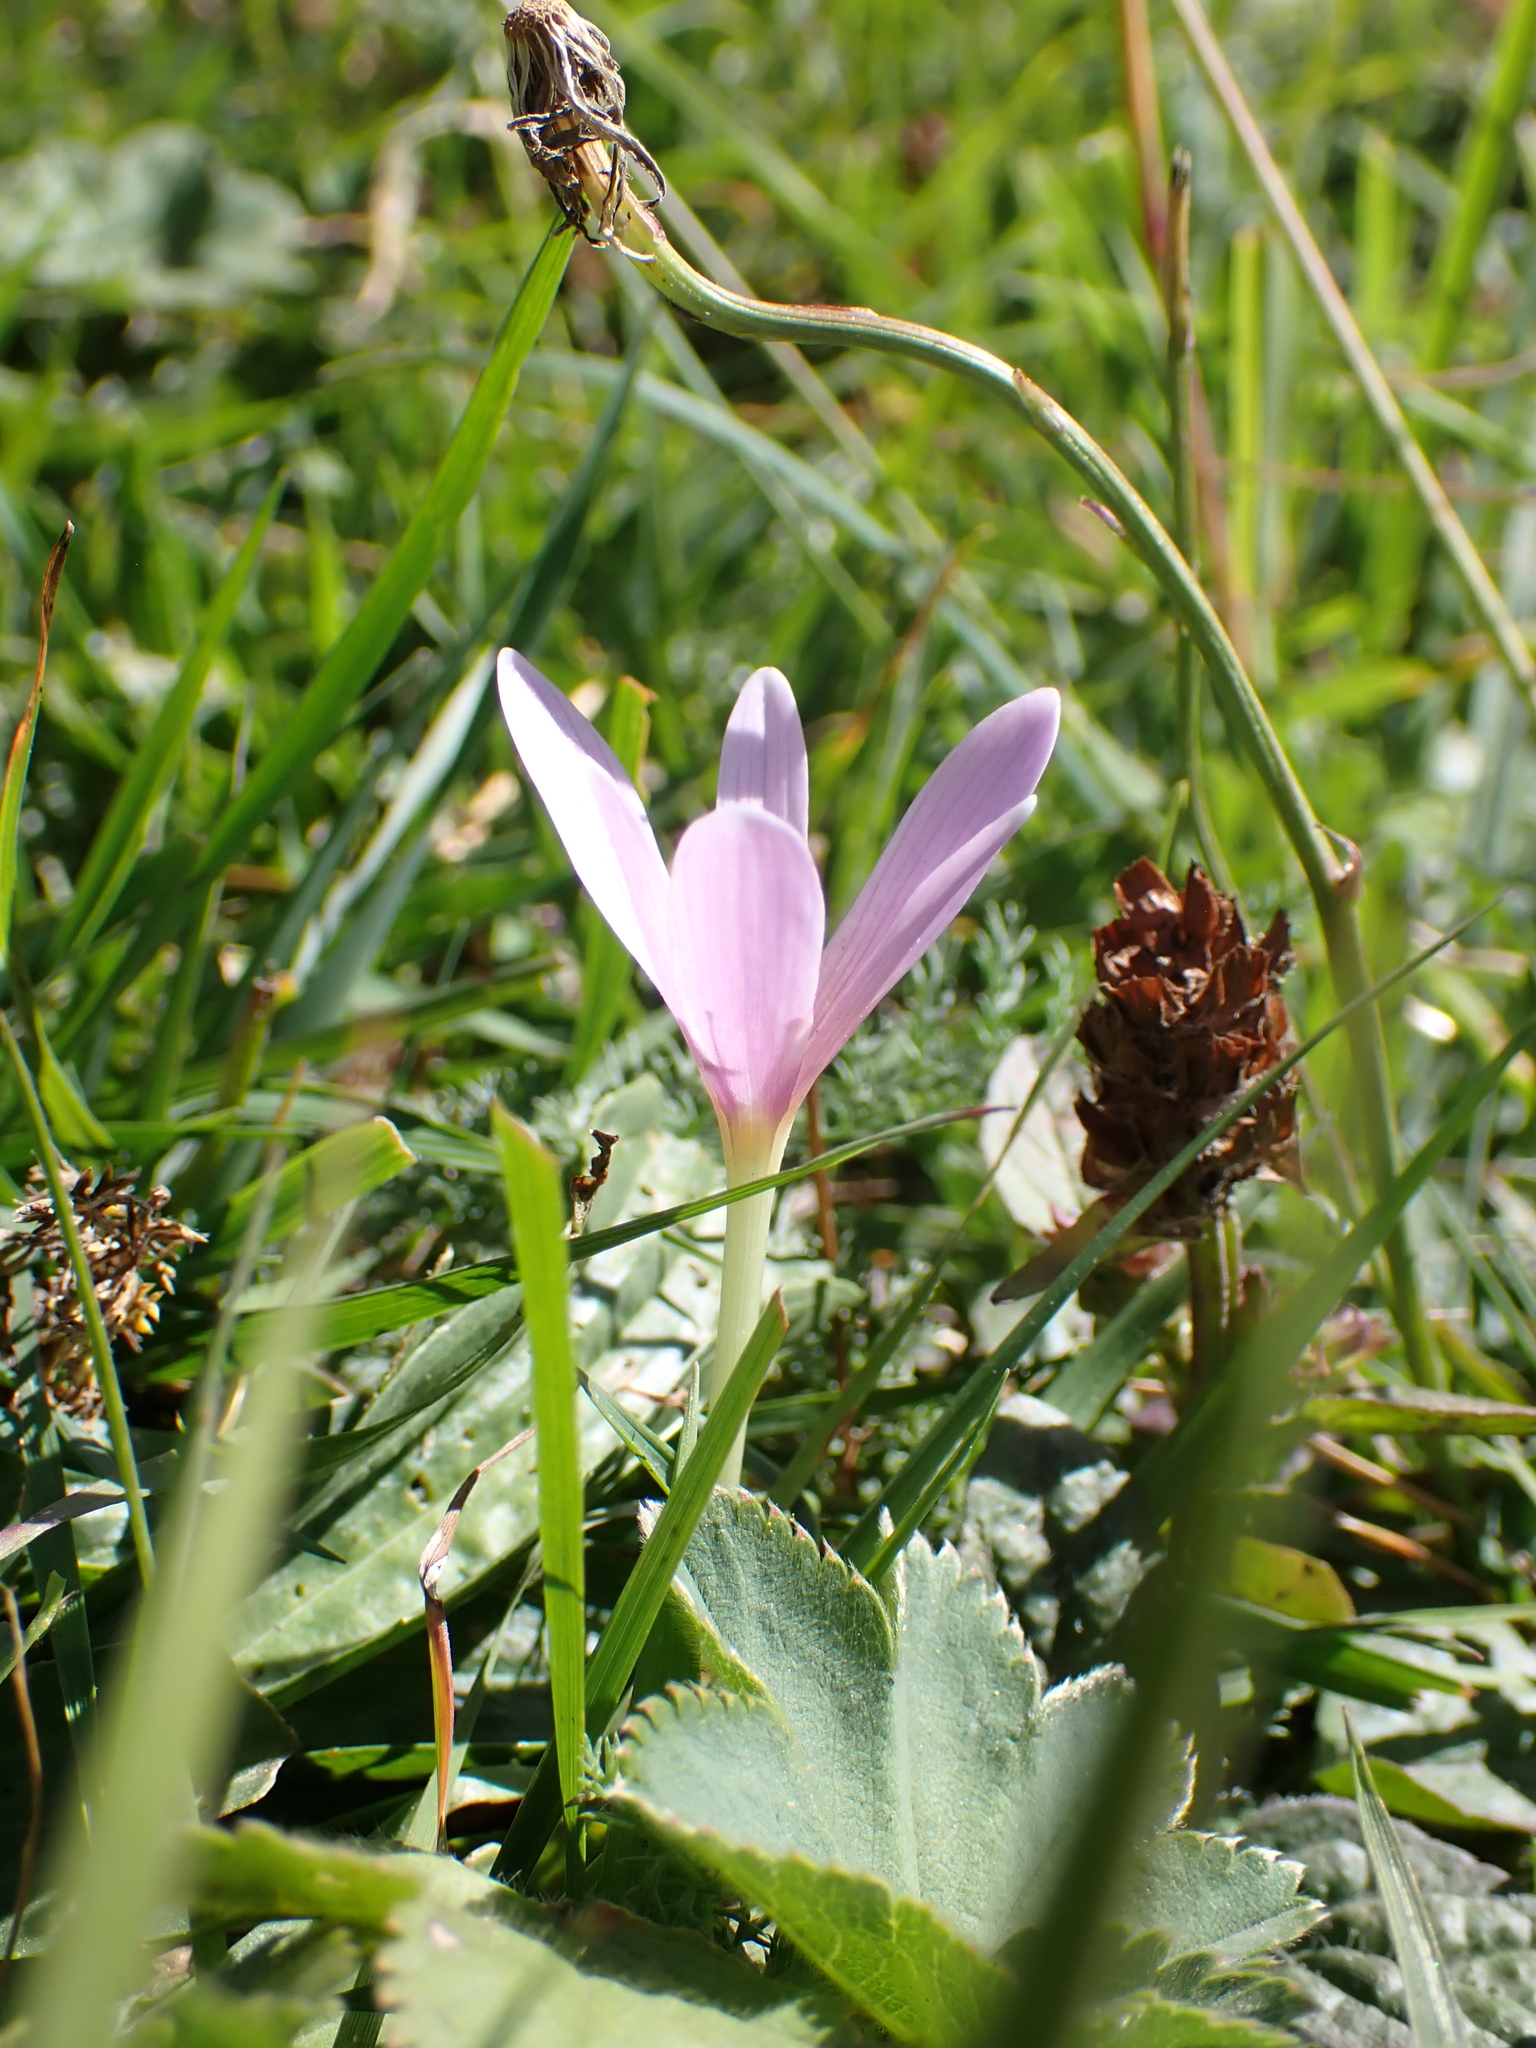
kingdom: Plantae
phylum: Tracheophyta
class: Liliopsida
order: Liliales
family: Colchicaceae
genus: Colchicum
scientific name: Colchicum alpinum
